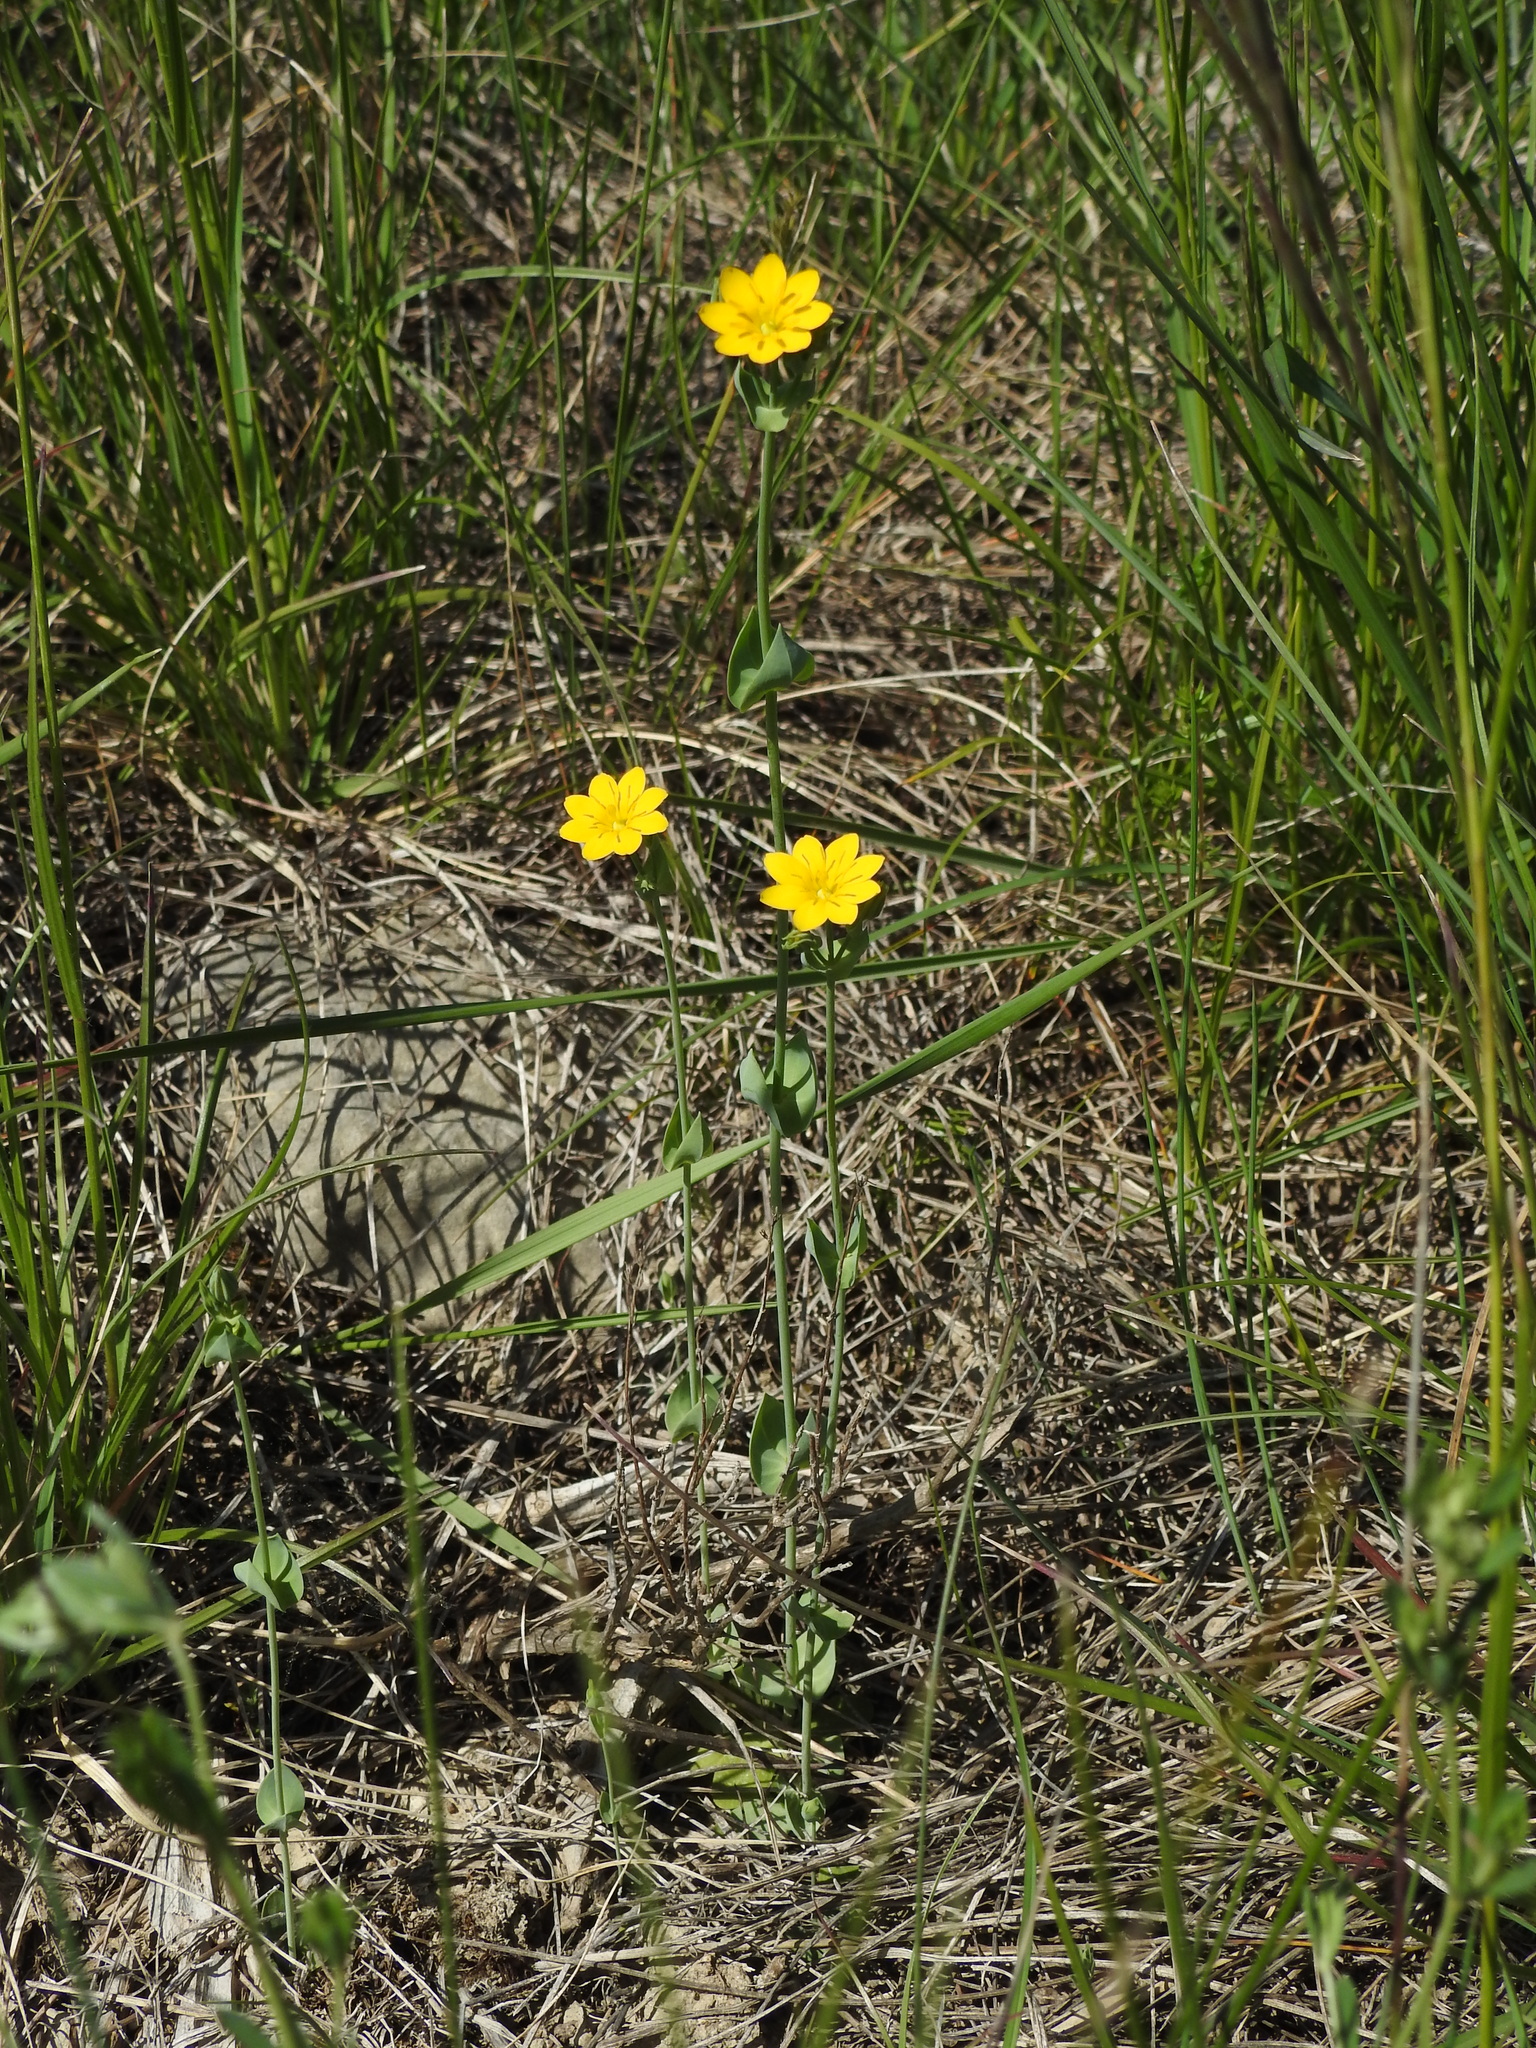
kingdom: Plantae
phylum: Tracheophyta
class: Magnoliopsida
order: Gentianales
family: Gentianaceae
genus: Blackstonia
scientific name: Blackstonia perfoliata
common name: Yellow-wort
